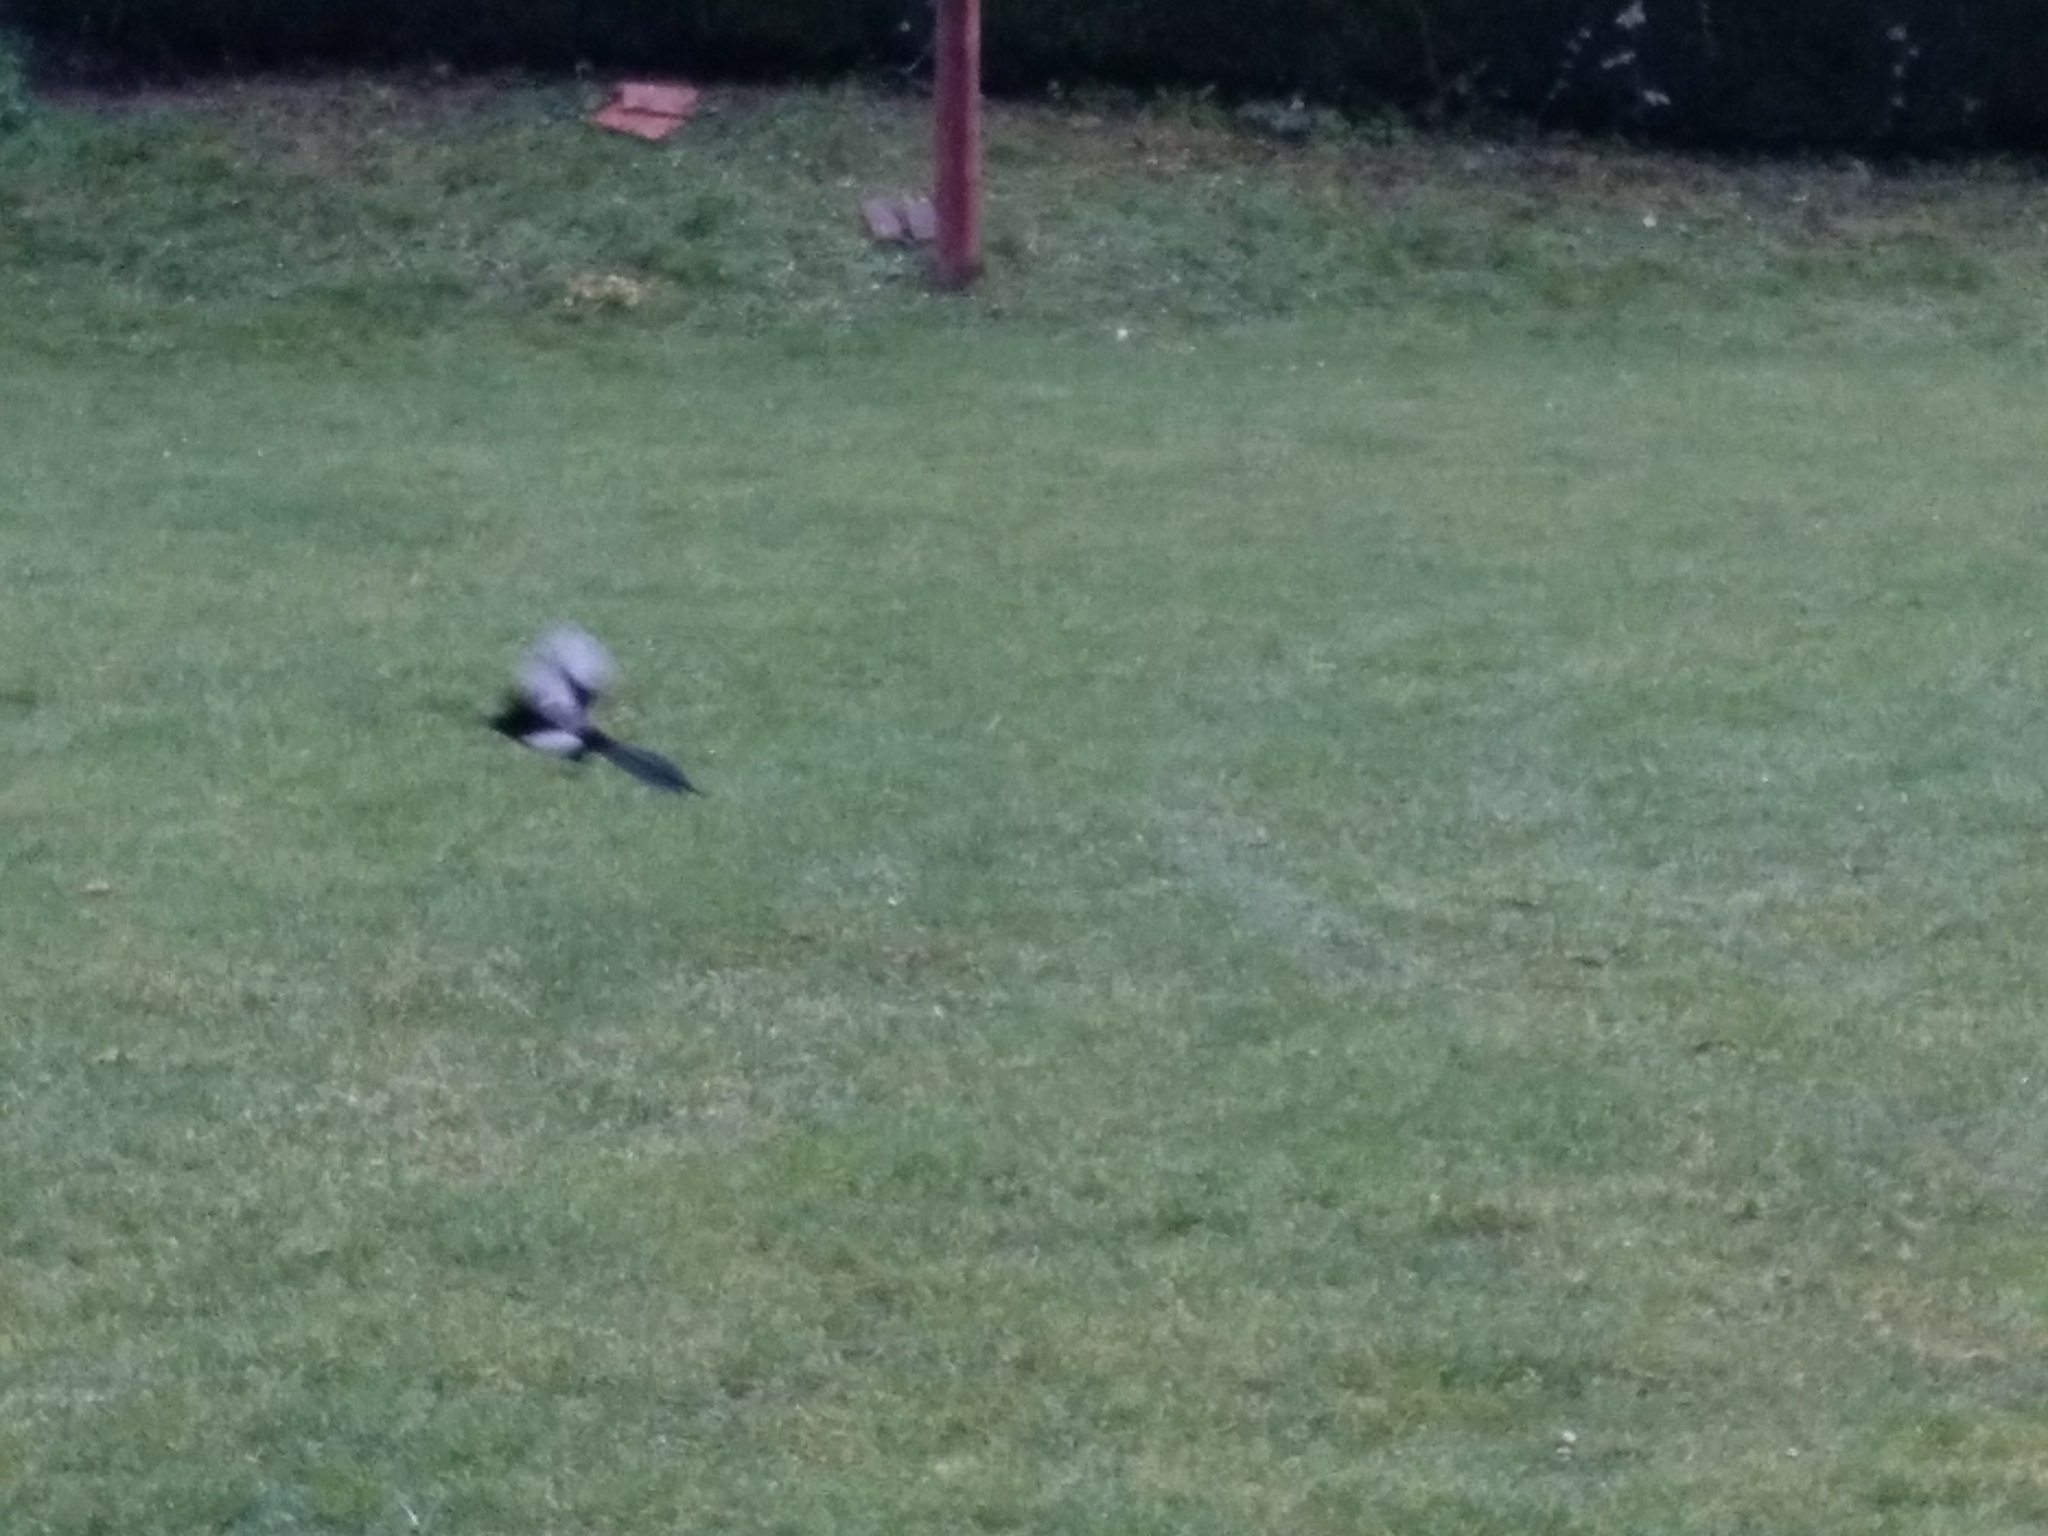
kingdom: Animalia
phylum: Chordata
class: Aves
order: Passeriformes
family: Corvidae
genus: Pica
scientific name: Pica pica
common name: Eurasian magpie
